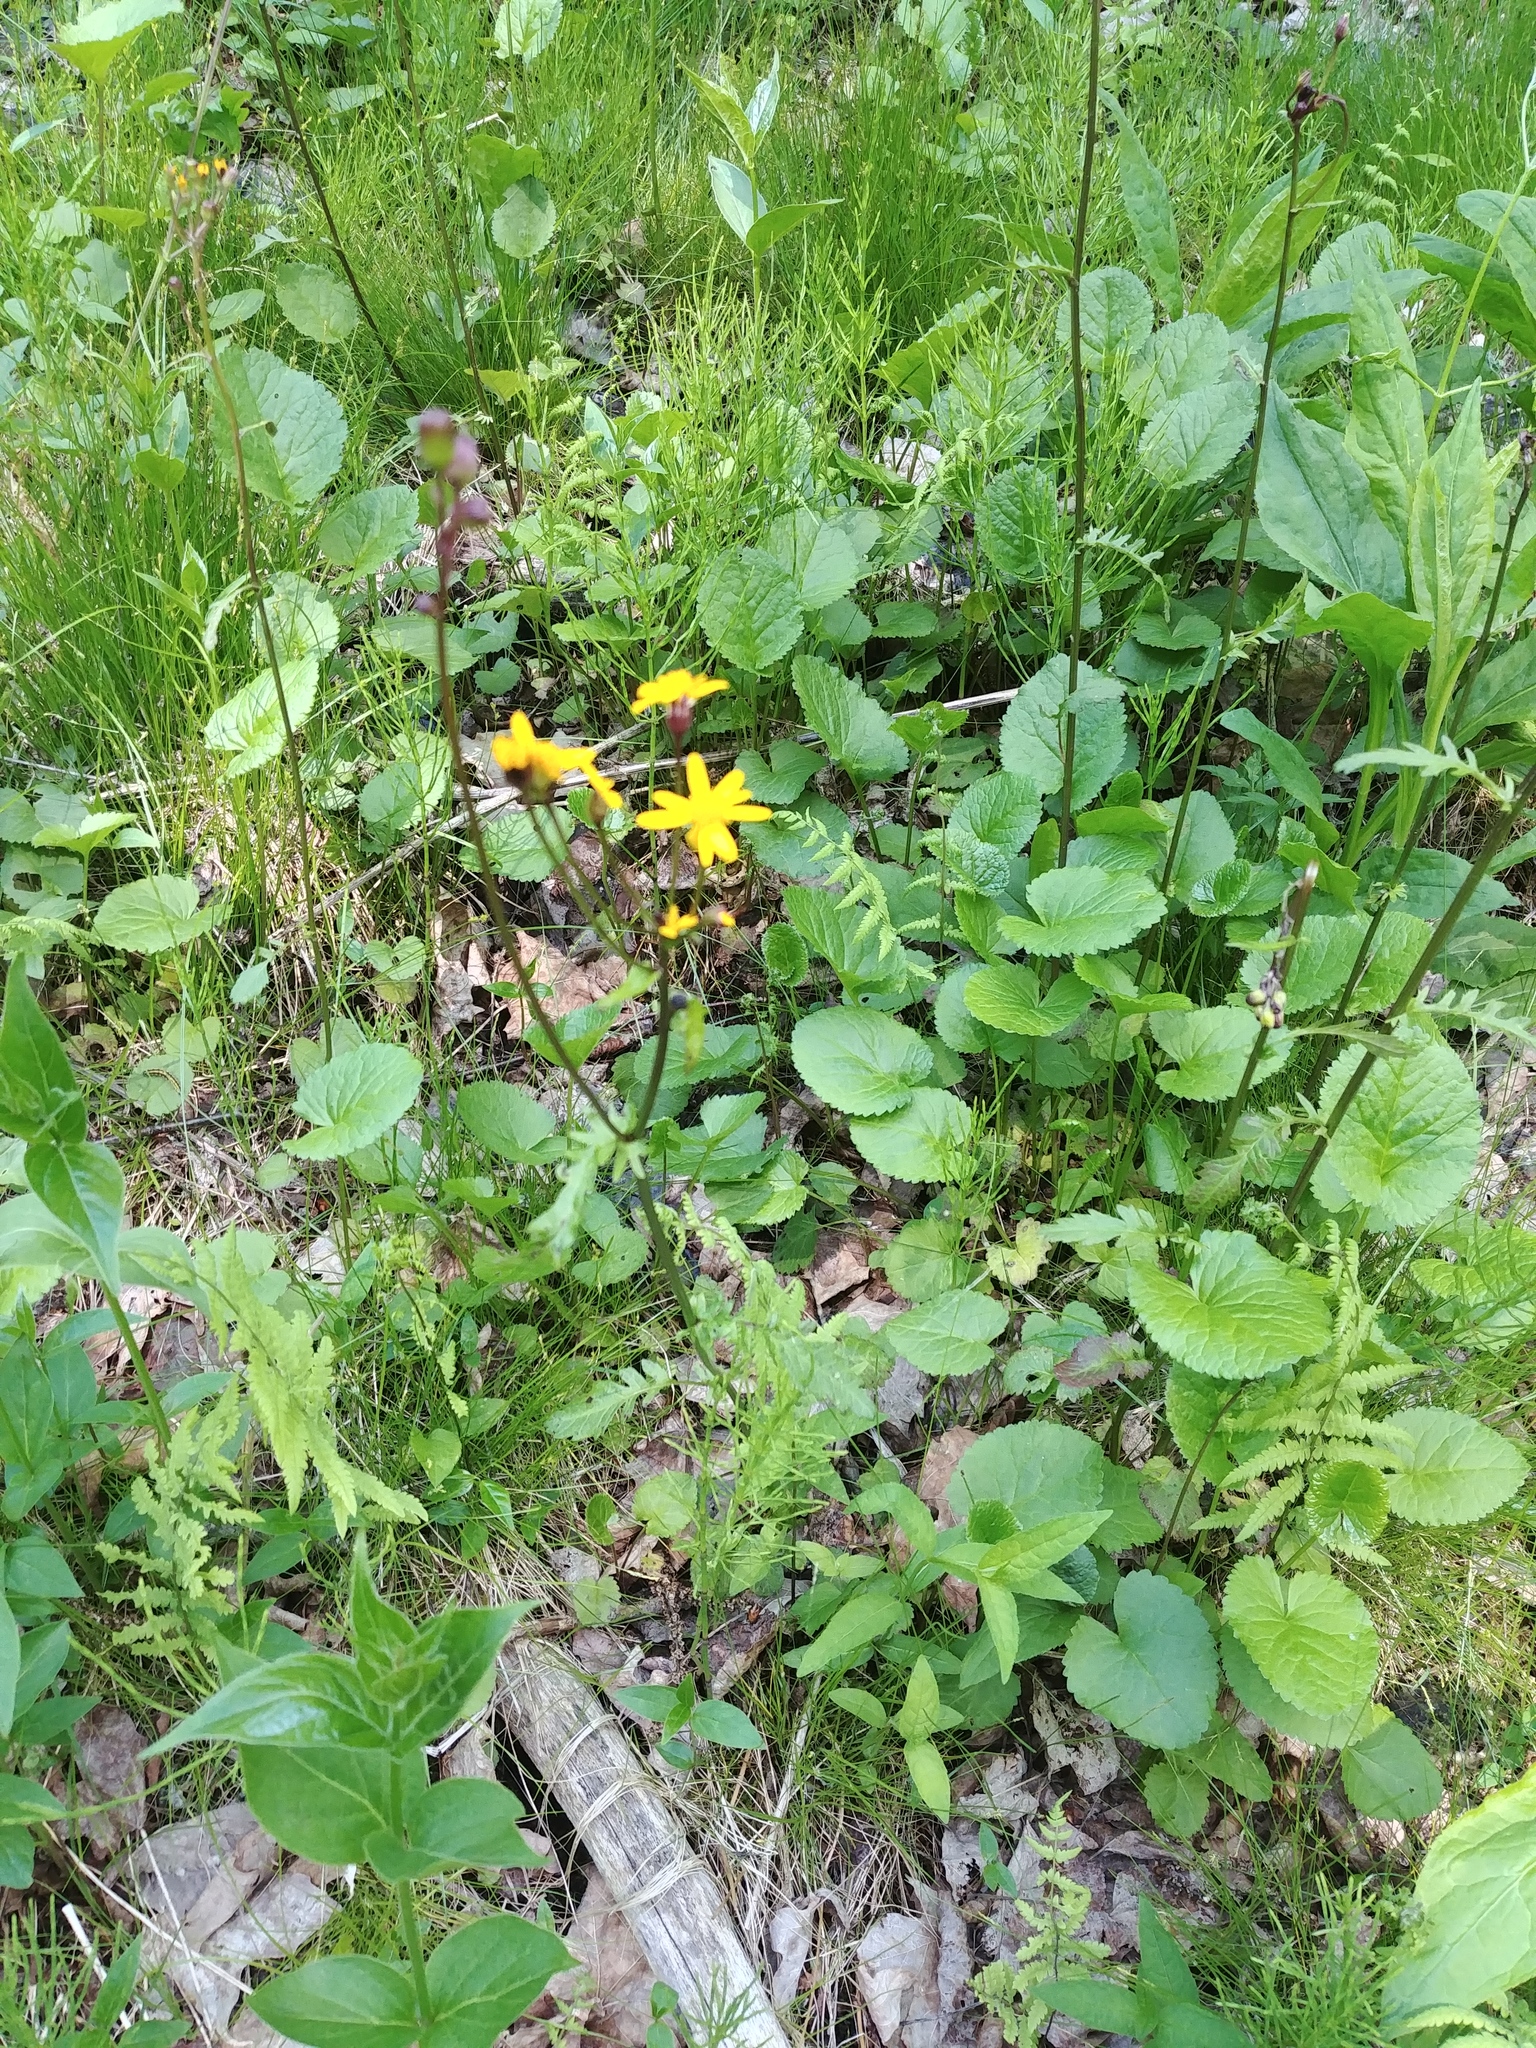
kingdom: Plantae
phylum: Tracheophyta
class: Magnoliopsida
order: Asterales
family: Asteraceae
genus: Packera
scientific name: Packera aurea
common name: Golden groundsel
